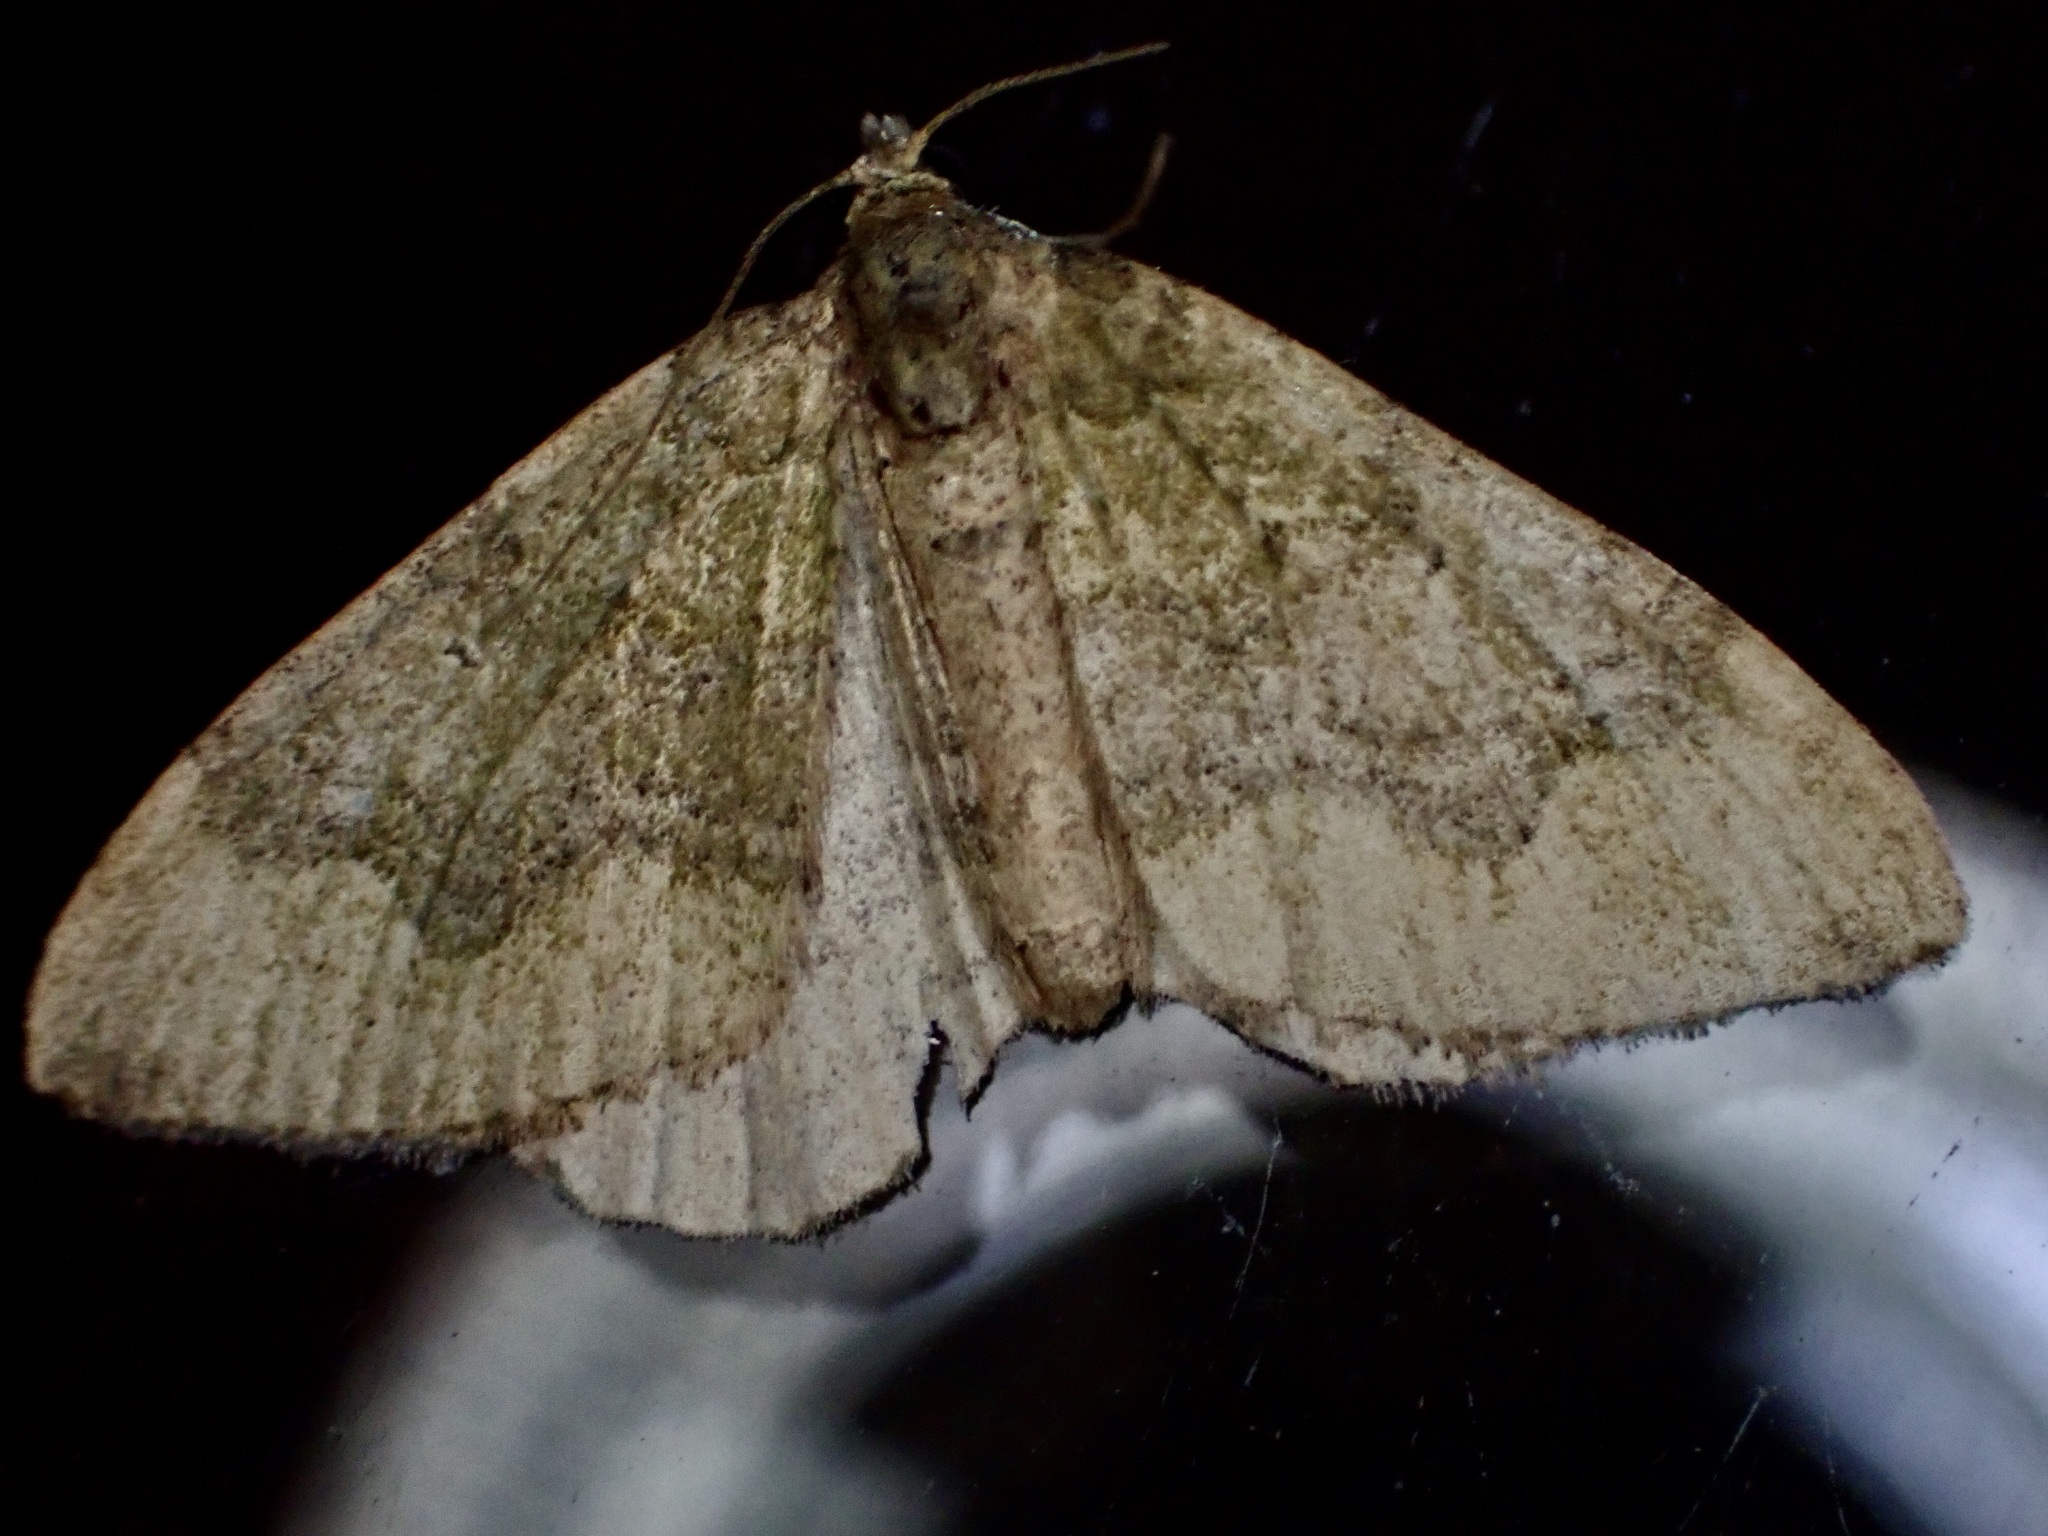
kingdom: Animalia
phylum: Arthropoda
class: Insecta
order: Lepidoptera
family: Geometridae
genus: Epyaxa
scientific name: Epyaxa rosearia
